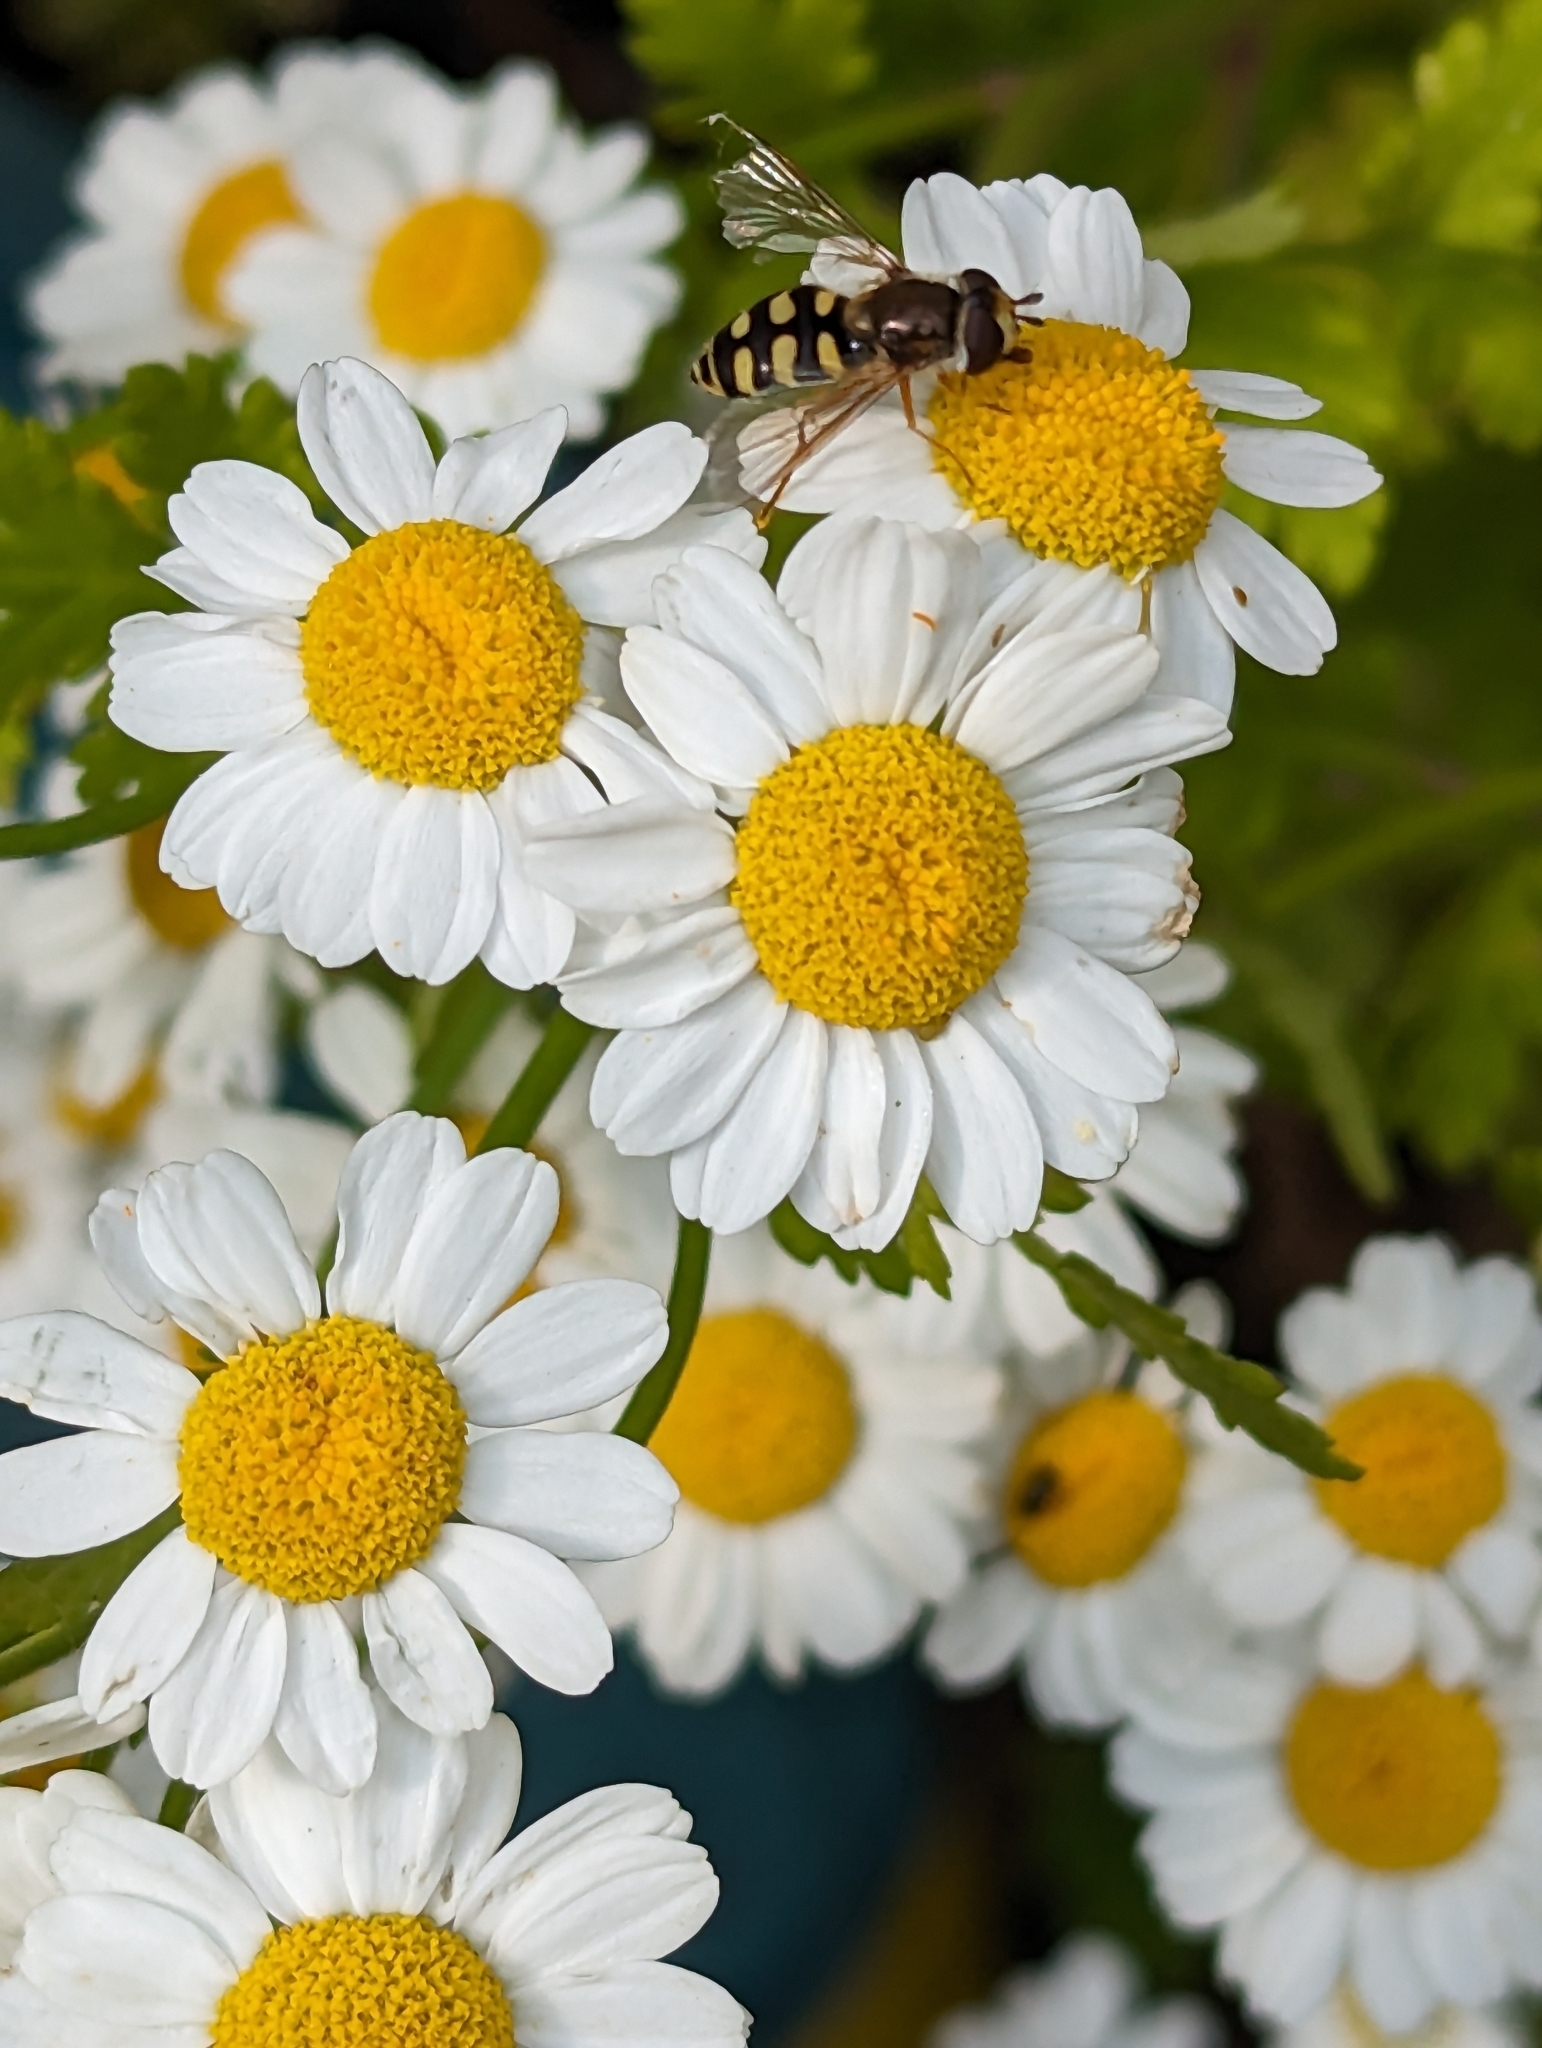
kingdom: Animalia
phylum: Arthropoda
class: Insecta
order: Diptera
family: Syrphidae
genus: Eupeodes
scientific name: Eupeodes corollae
